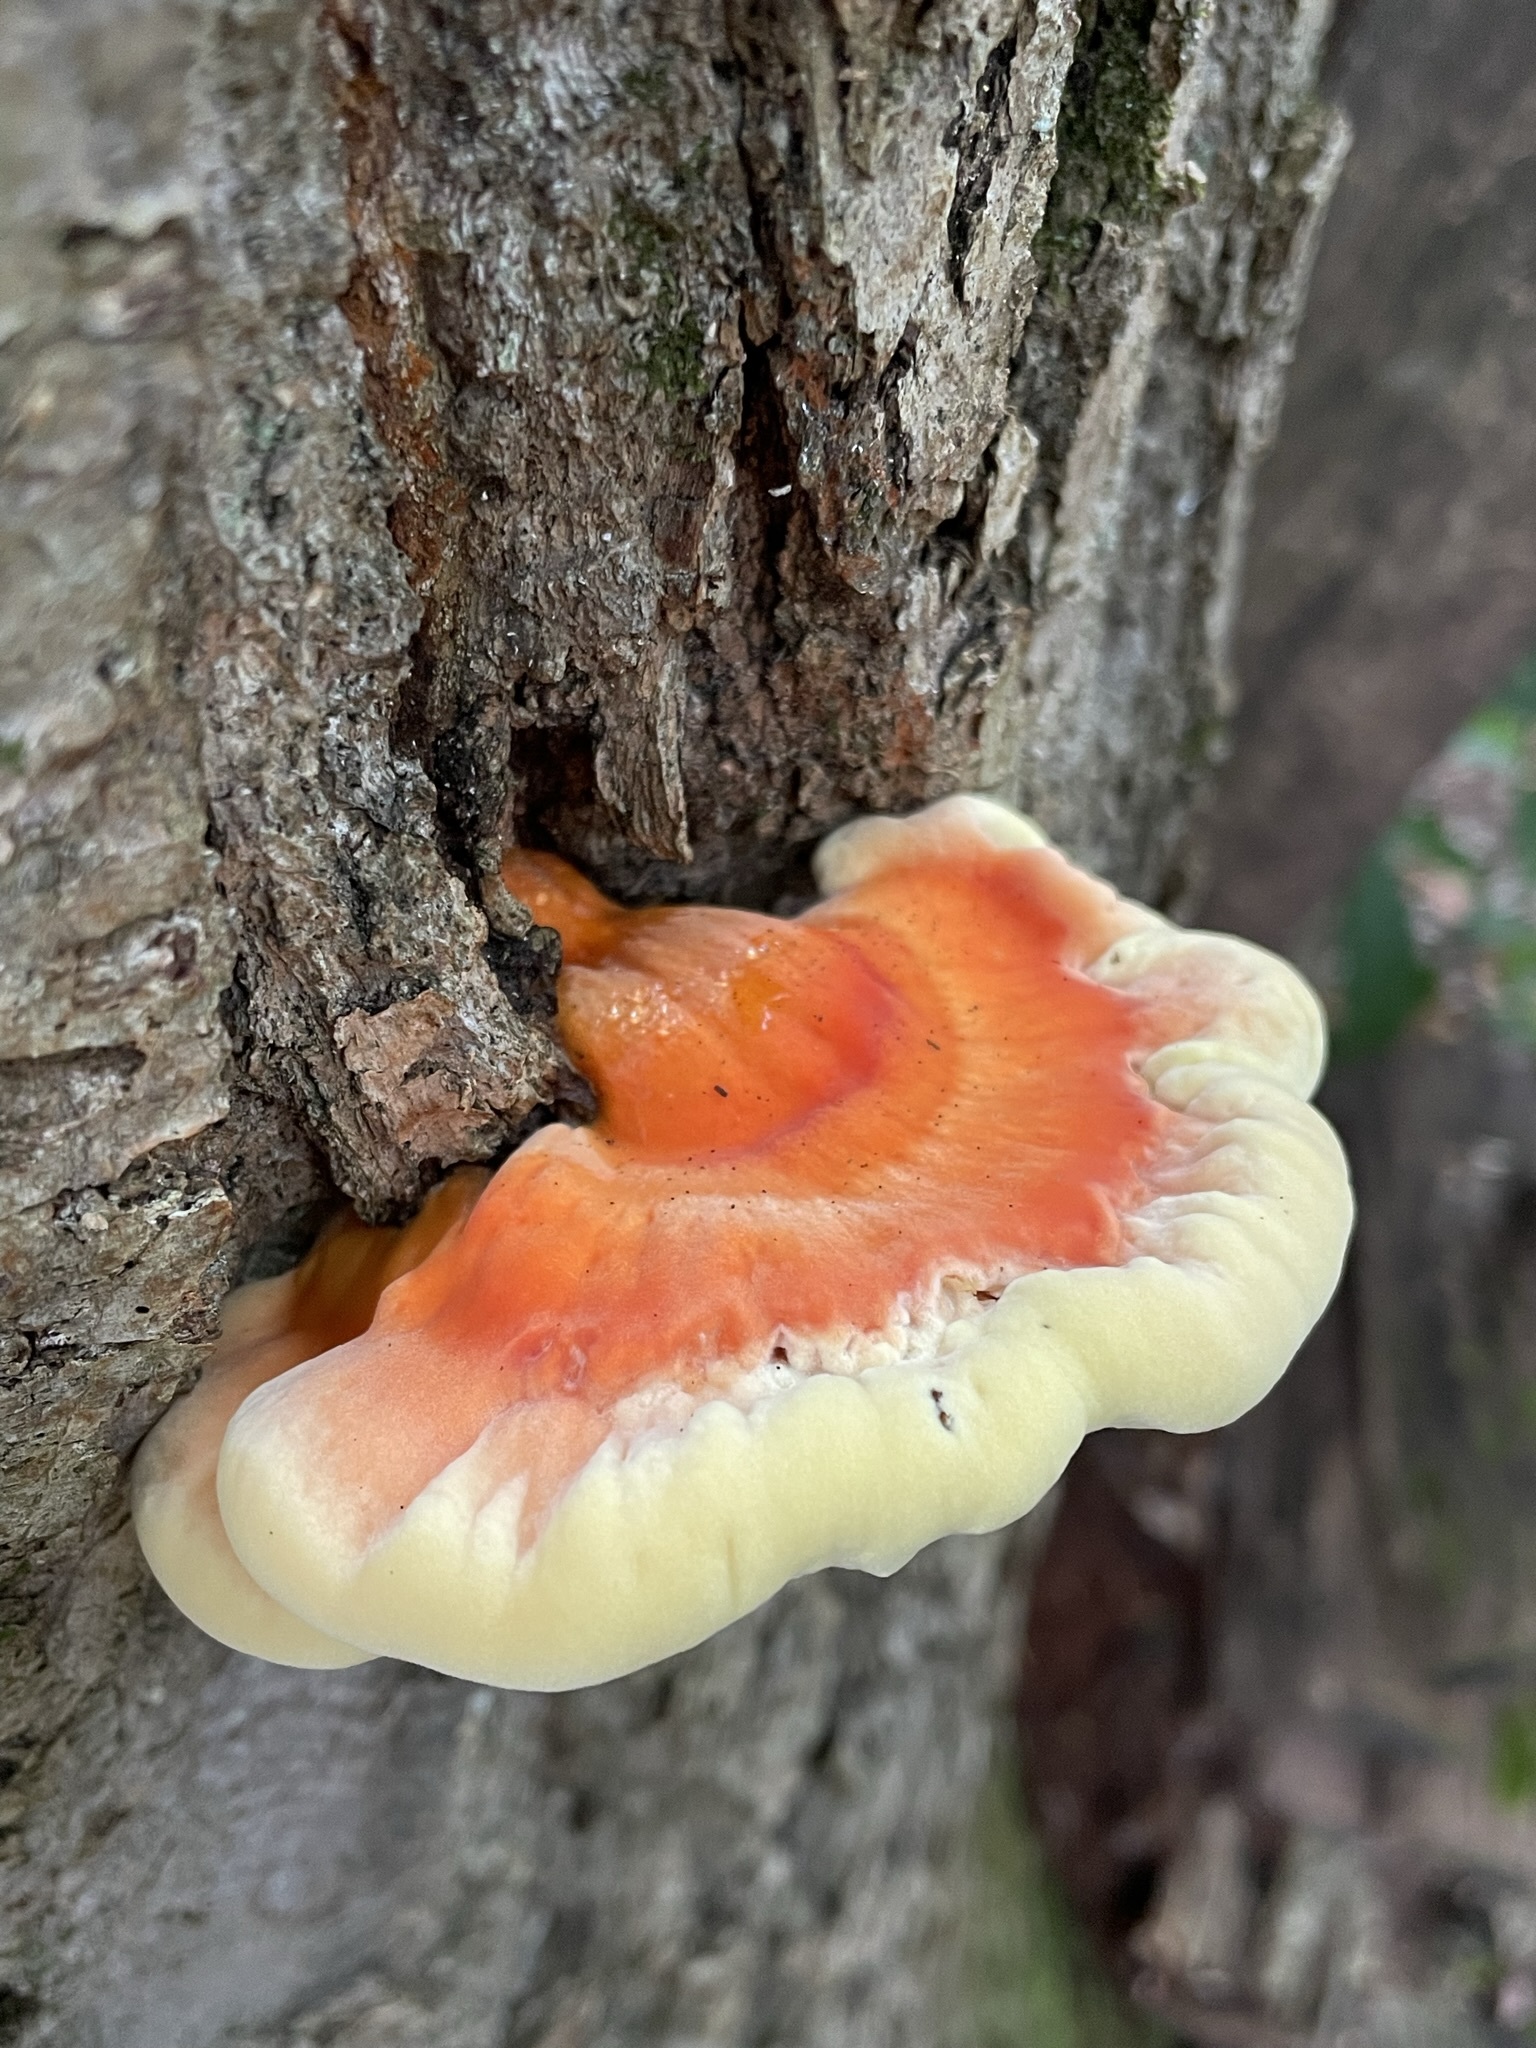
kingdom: Fungi
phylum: Basidiomycota
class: Agaricomycetes
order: Polyporales
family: Laetiporaceae
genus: Laetiporus
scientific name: Laetiporus sulphureus
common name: Chicken of the woods
